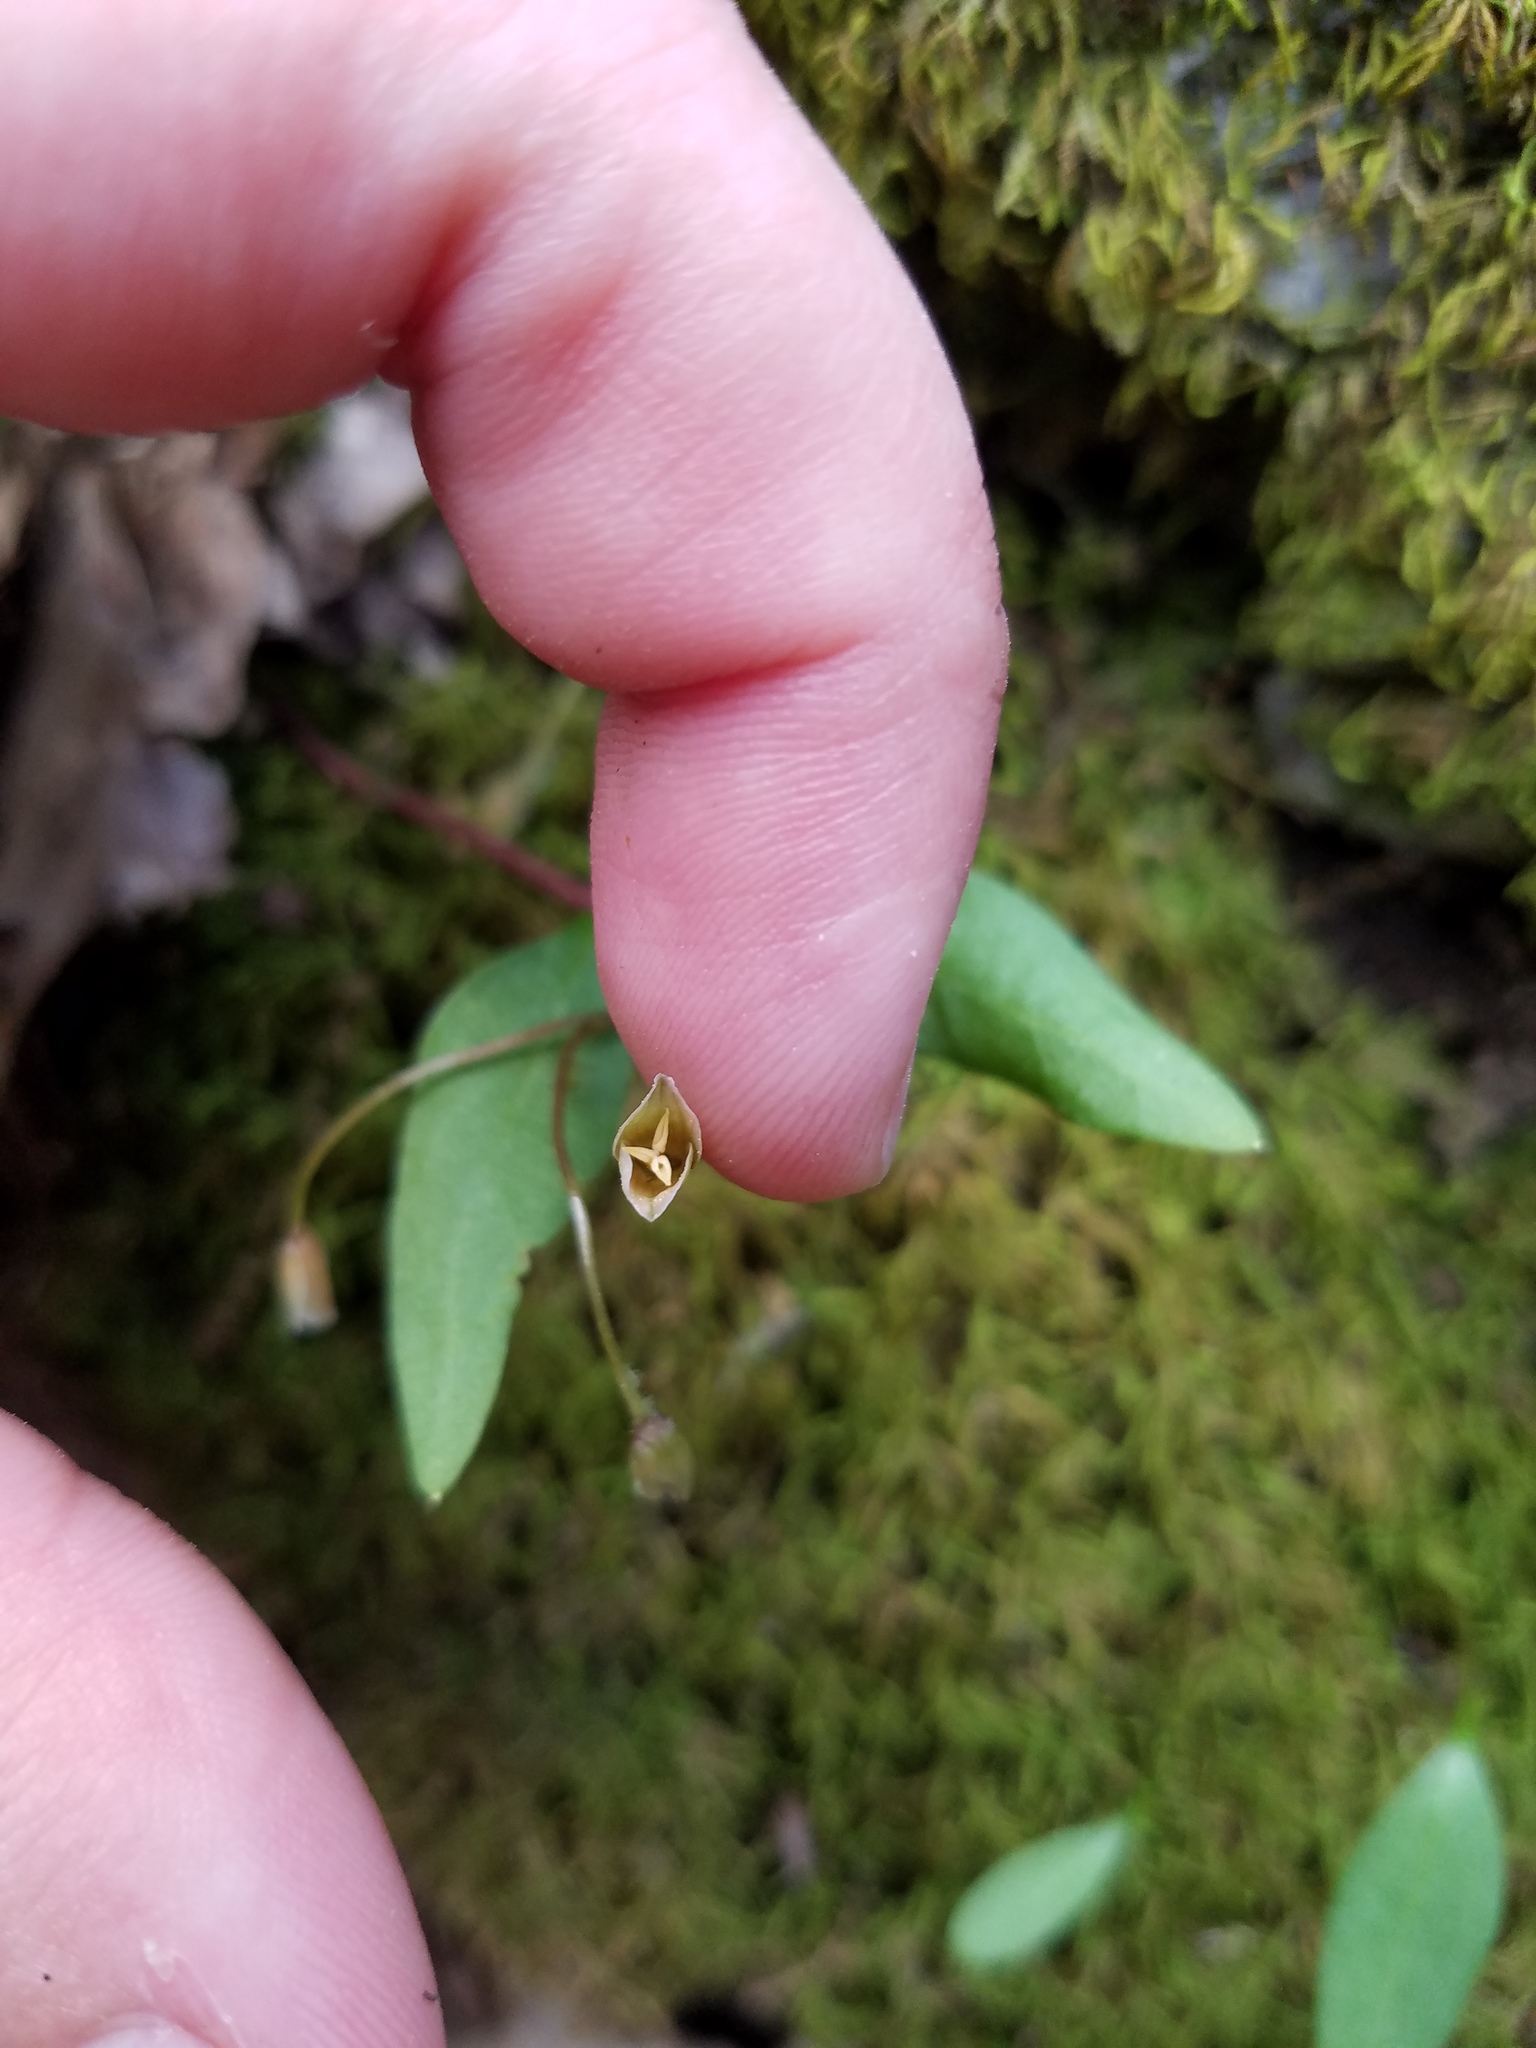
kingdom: Plantae
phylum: Tracheophyta
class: Magnoliopsida
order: Caryophyllales
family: Montiaceae
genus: Claytonia
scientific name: Claytonia caroliniana
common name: Carolina spring beauty
